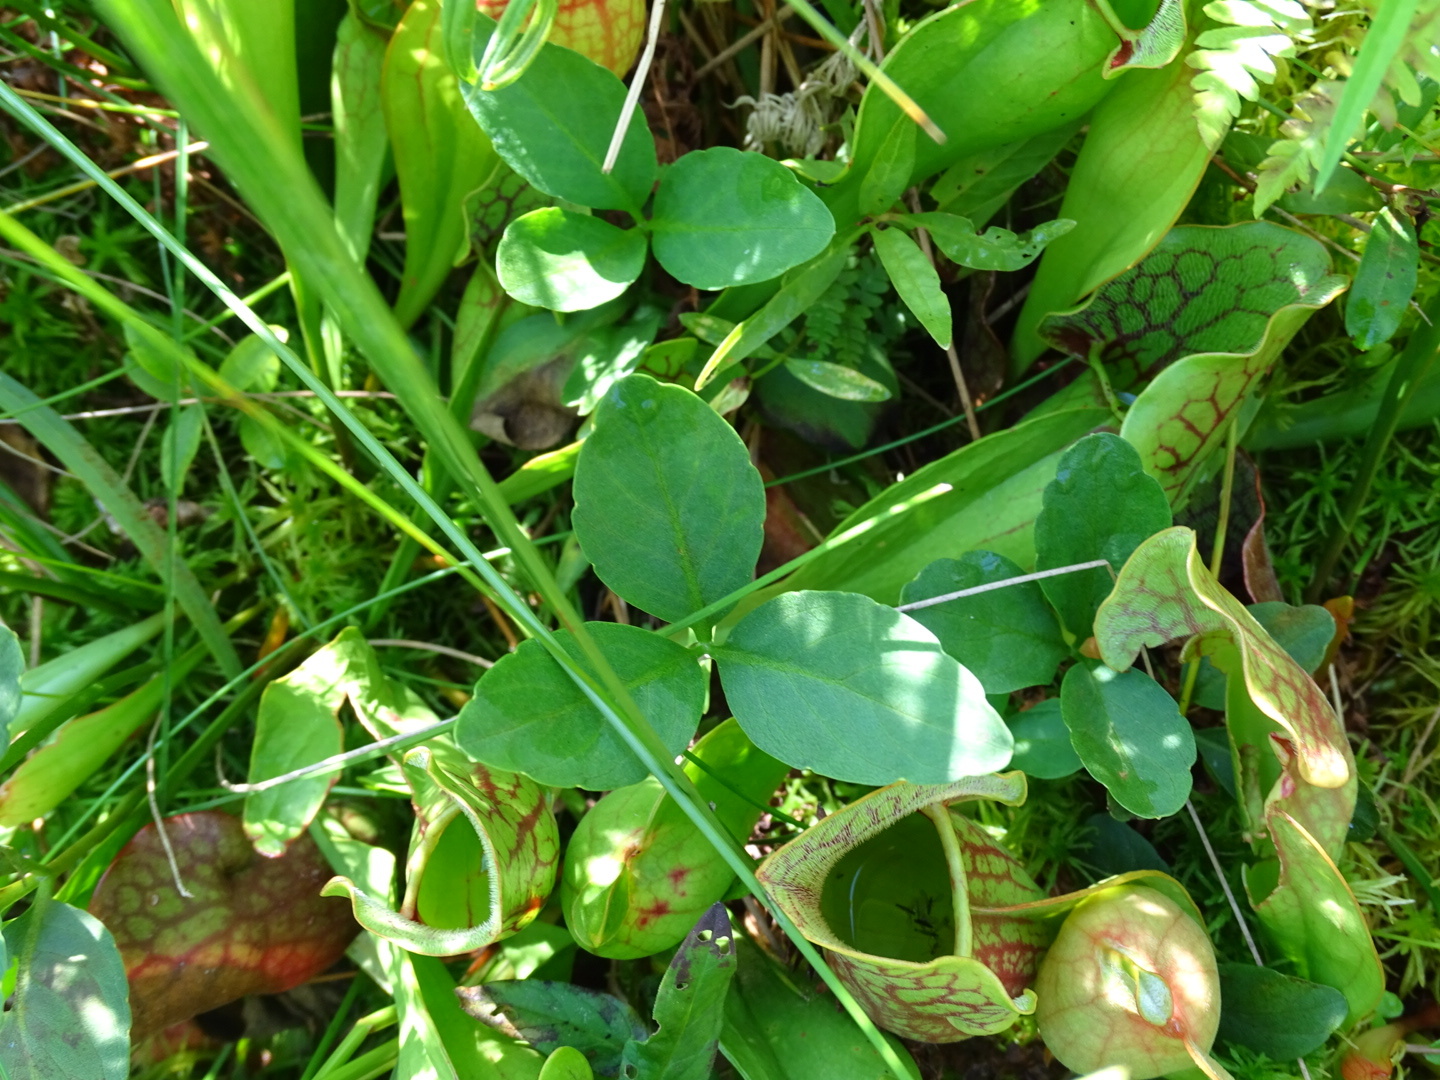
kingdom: Plantae
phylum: Tracheophyta
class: Magnoliopsida
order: Asterales
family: Menyanthaceae
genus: Menyanthes
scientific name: Menyanthes trifoliata
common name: Bogbean
